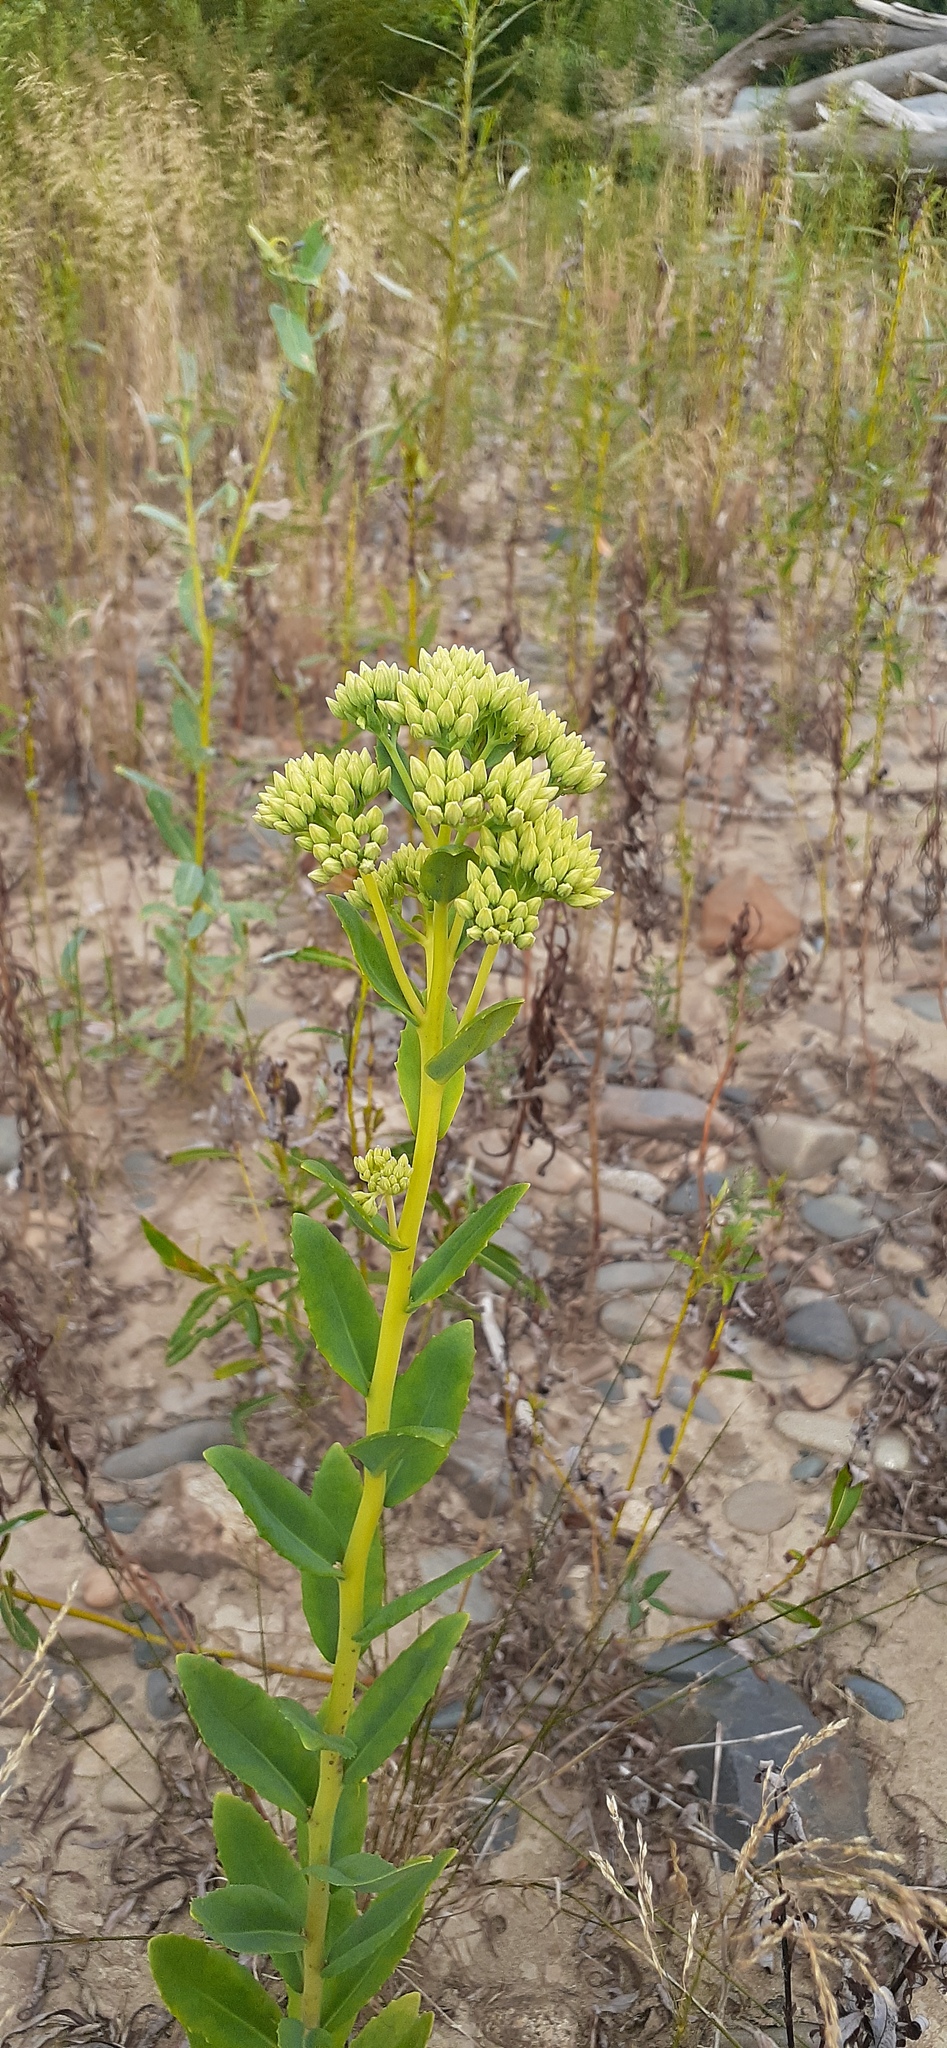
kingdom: Plantae
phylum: Tracheophyta
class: Magnoliopsida
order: Saxifragales
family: Crassulaceae
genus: Hylotelephium
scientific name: Hylotelephium pallescens
